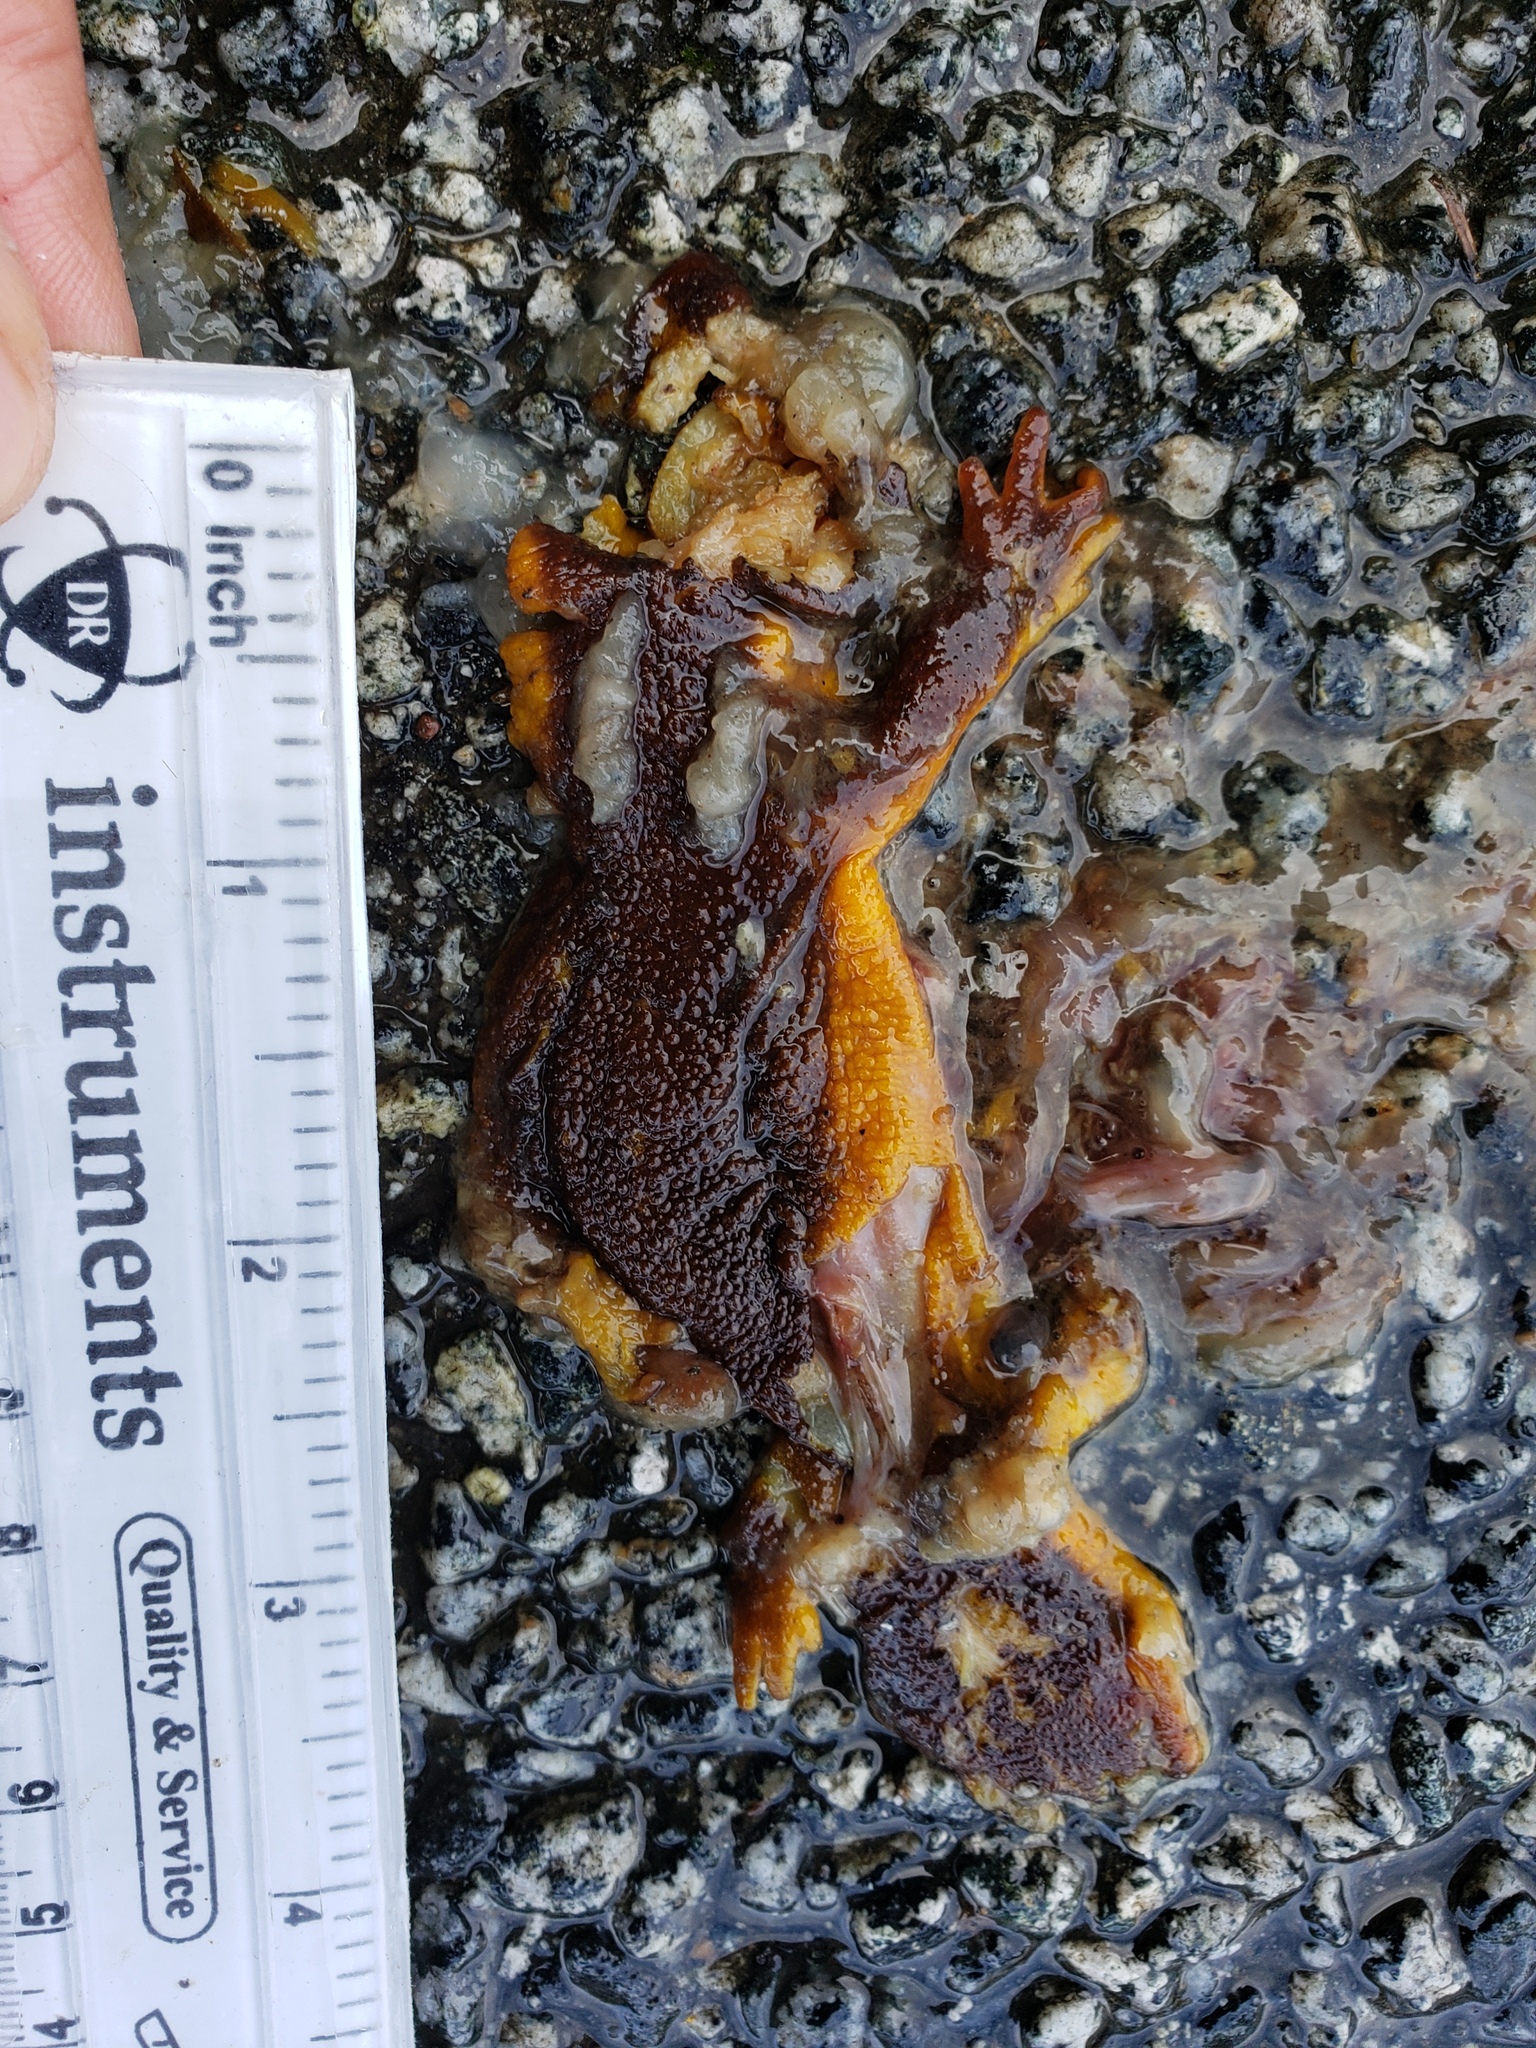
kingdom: Animalia
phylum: Chordata
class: Amphibia
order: Caudata
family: Salamandridae
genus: Taricha
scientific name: Taricha
